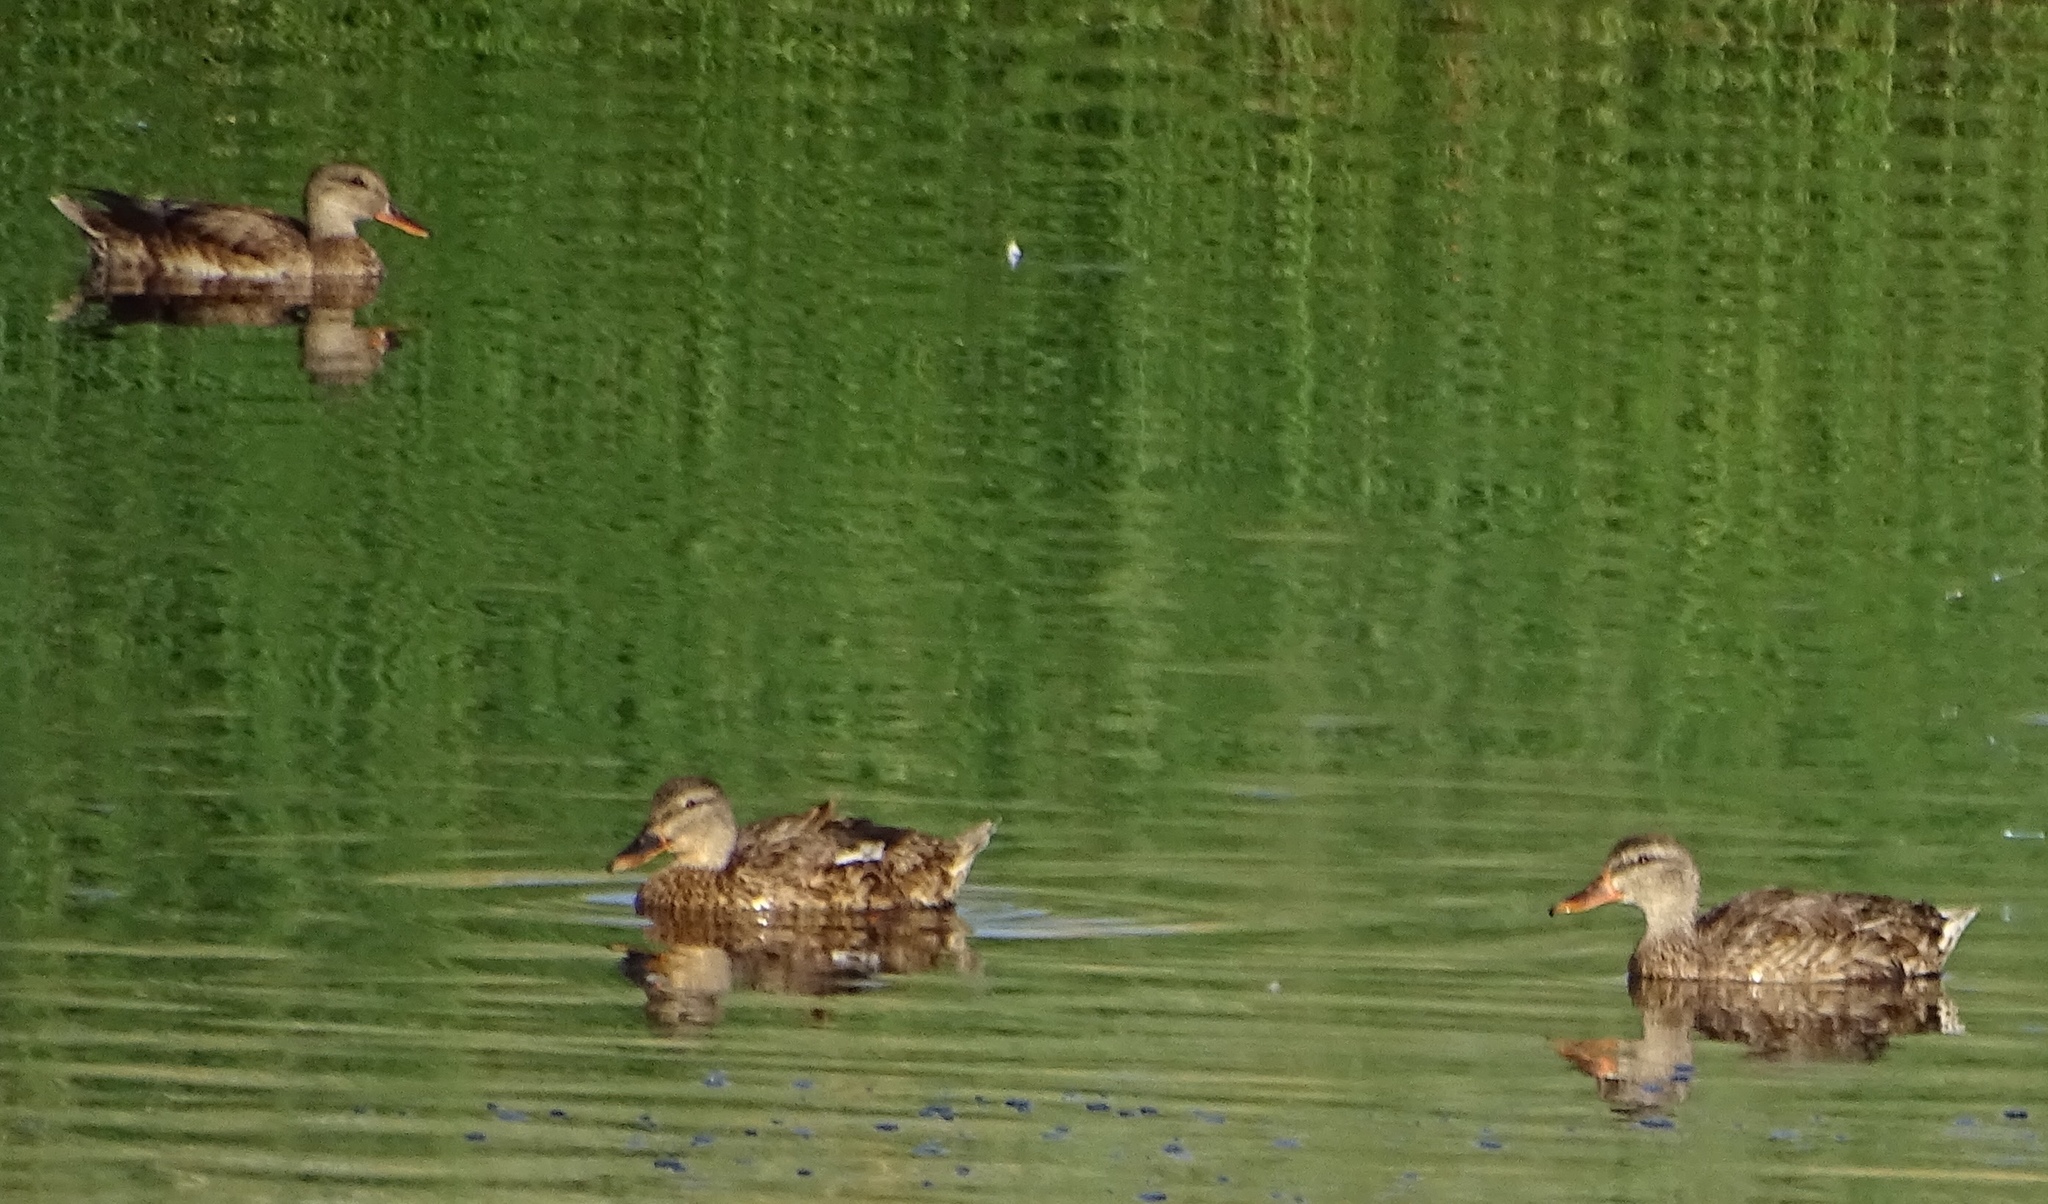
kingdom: Animalia
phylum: Chordata
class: Aves
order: Anseriformes
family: Anatidae
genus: Anas
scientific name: Anas platyrhynchos
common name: Mallard
